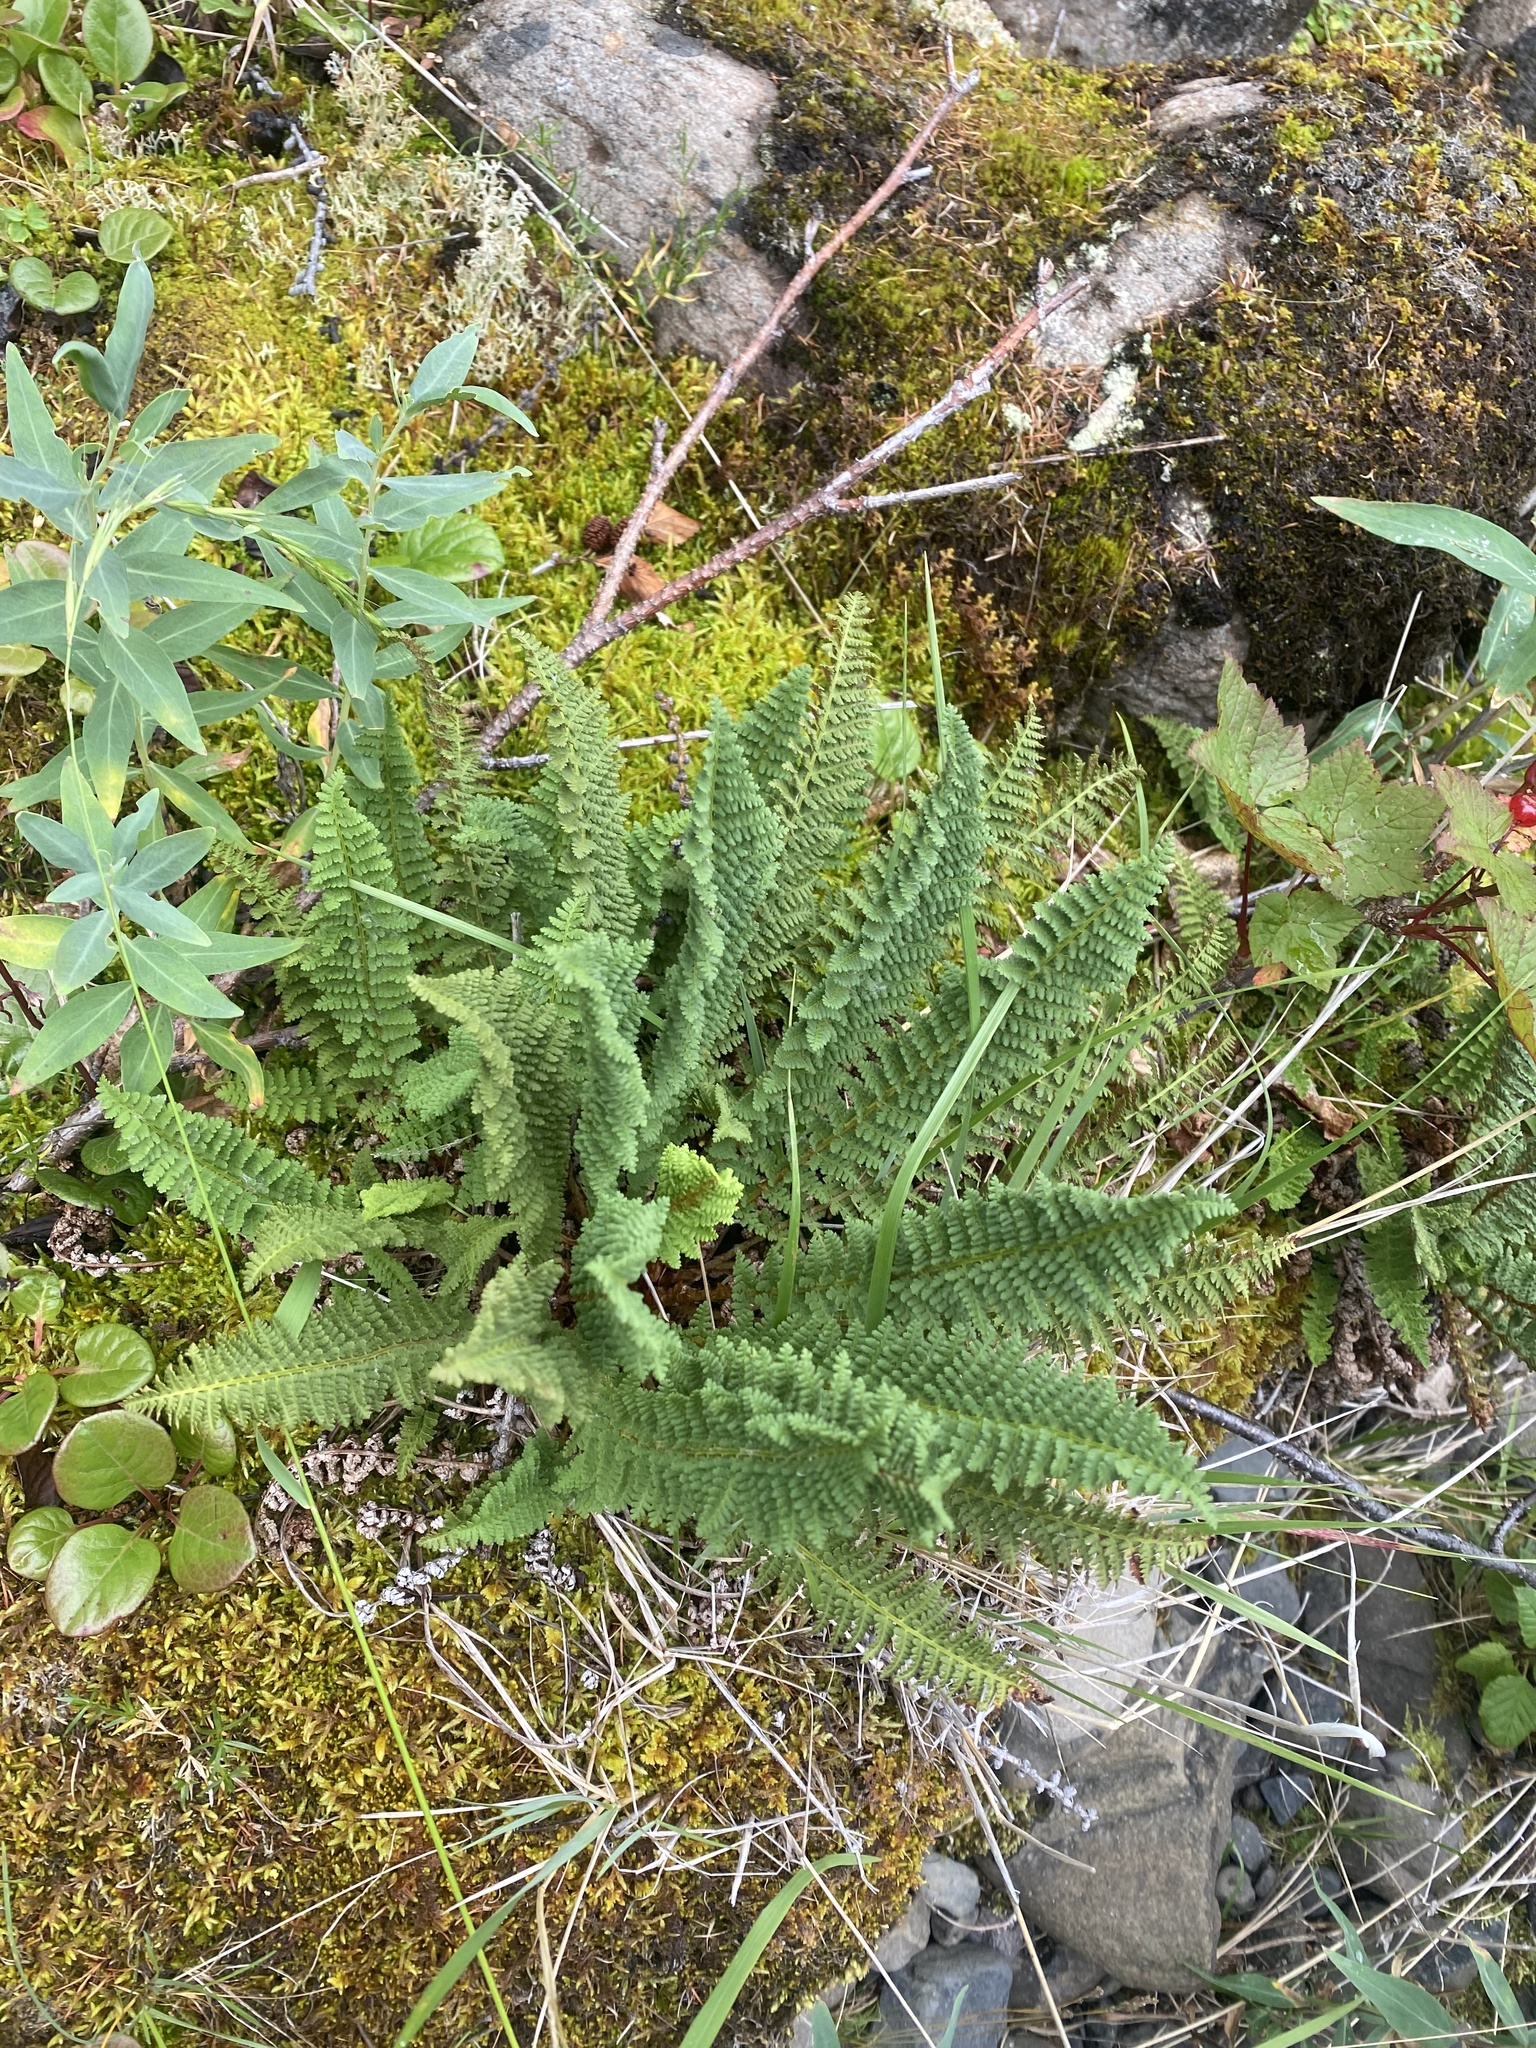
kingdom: Plantae
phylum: Tracheophyta
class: Polypodiopsida
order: Polypodiales
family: Dryopteridaceae
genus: Dryopteris
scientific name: Dryopteris fragrans
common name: Fragrant wood fern
